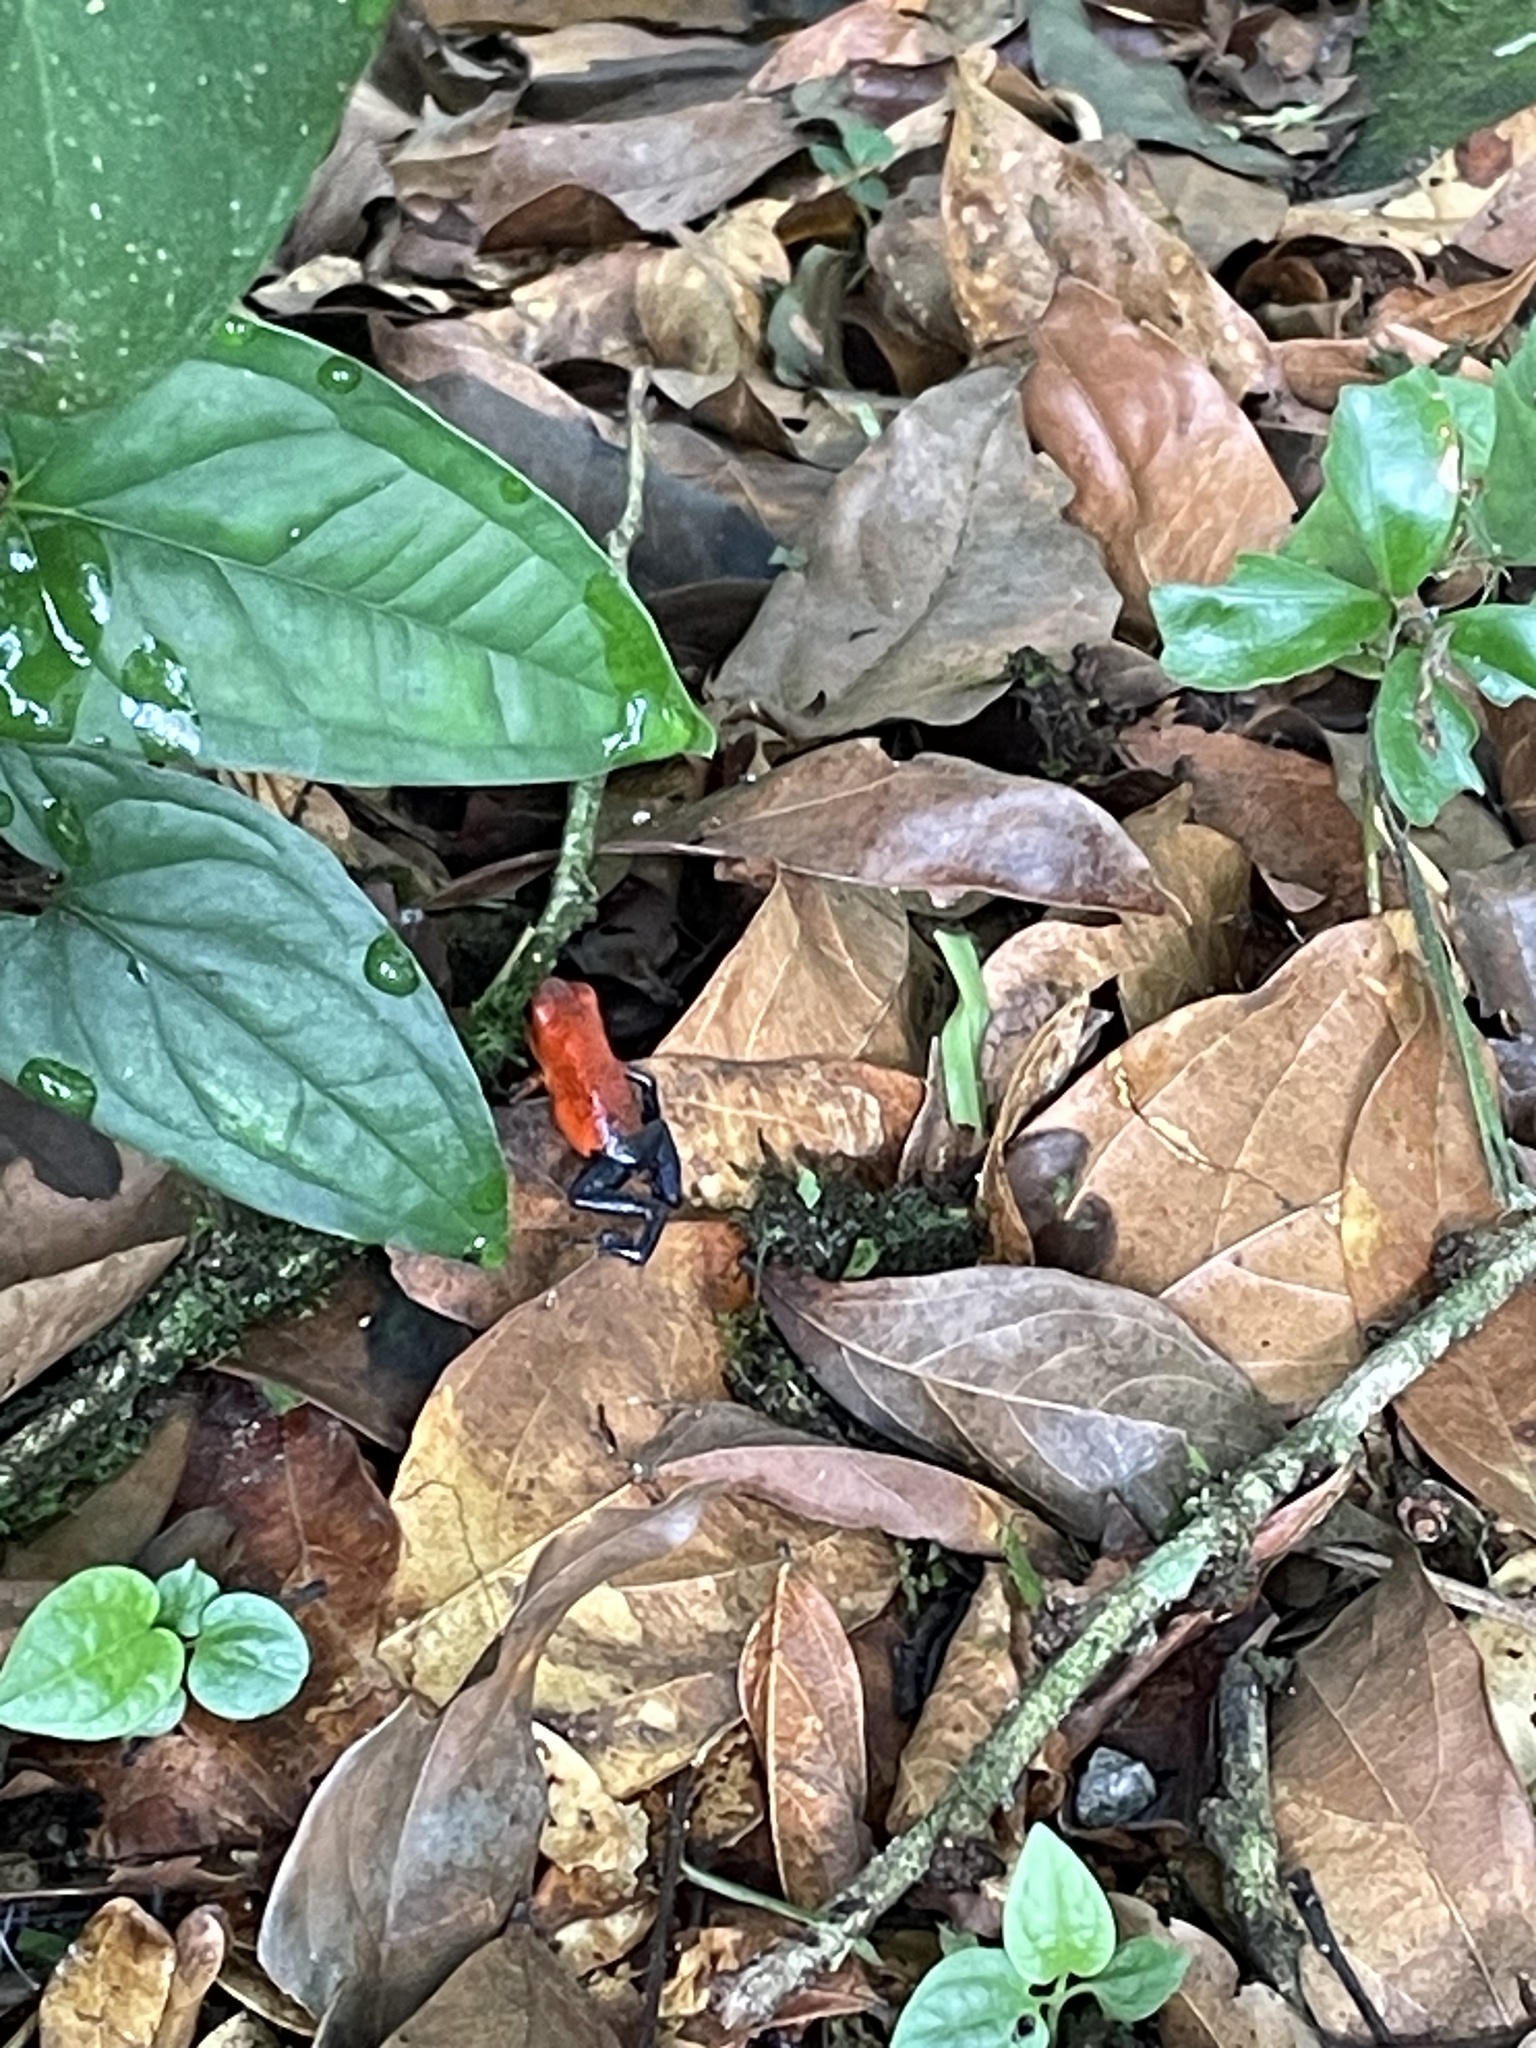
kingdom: Animalia
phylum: Chordata
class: Amphibia
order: Anura
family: Dendrobatidae
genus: Oophaga
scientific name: Oophaga pumilio
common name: Flaming poison frog
